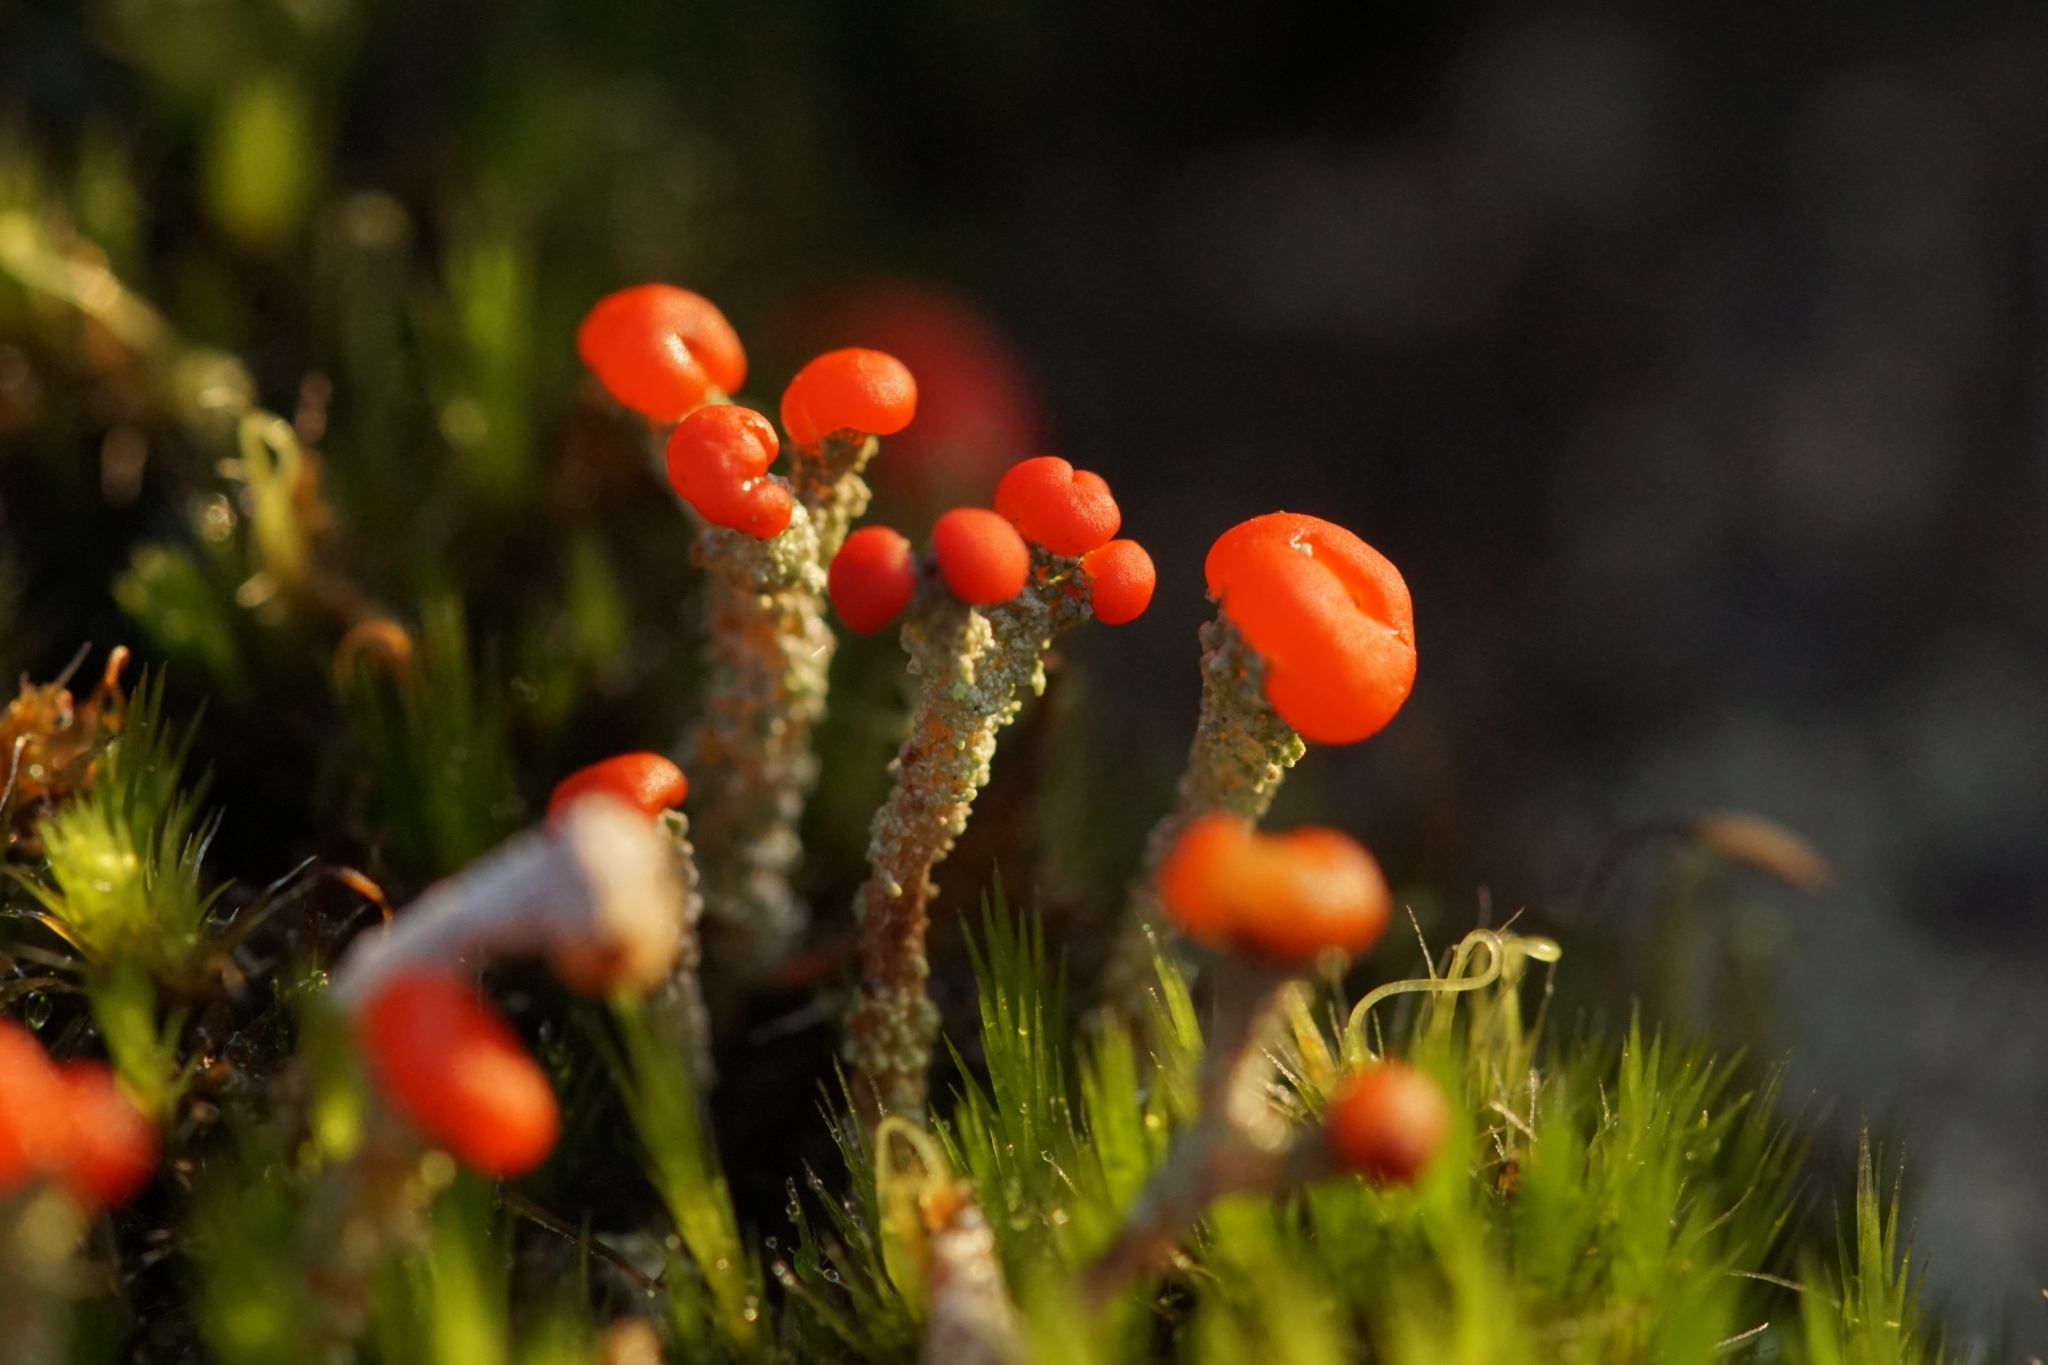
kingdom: Fungi
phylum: Ascomycota
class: Lecanoromycetes
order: Lecanorales
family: Cladoniaceae
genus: Cladonia
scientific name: Cladonia floerkeana
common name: Gritty british soldiers lichen
